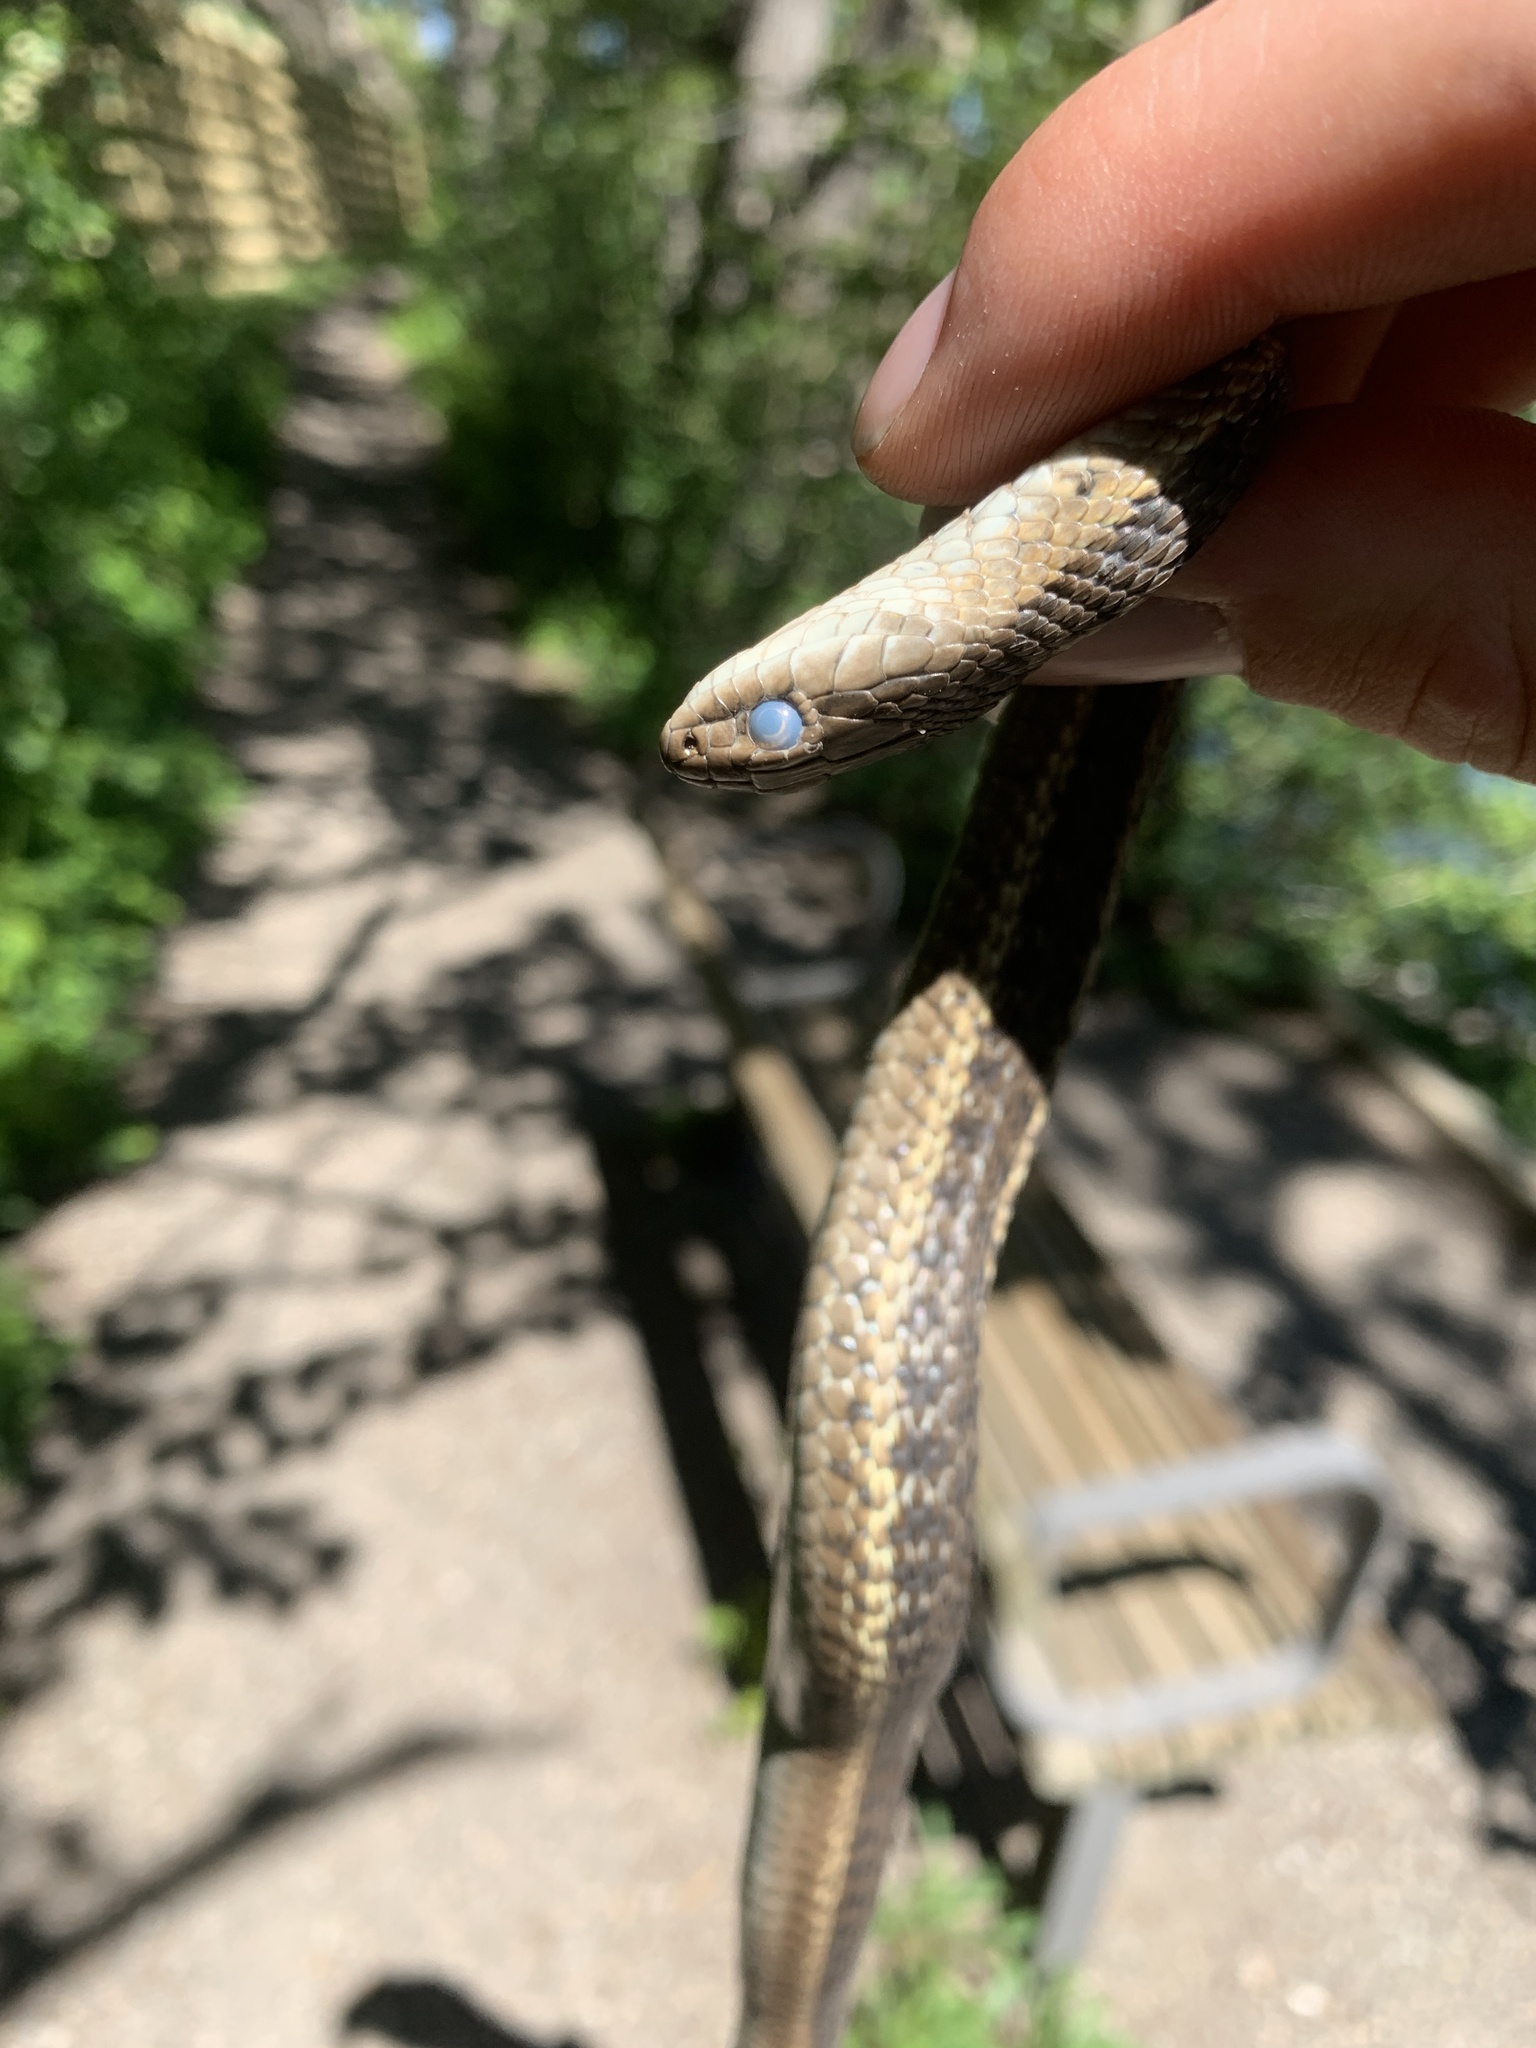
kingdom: Animalia
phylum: Chordata
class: Squamata
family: Colubridae
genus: Thamnophis
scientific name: Thamnophis elegans
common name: Western terrestrial garter snake
